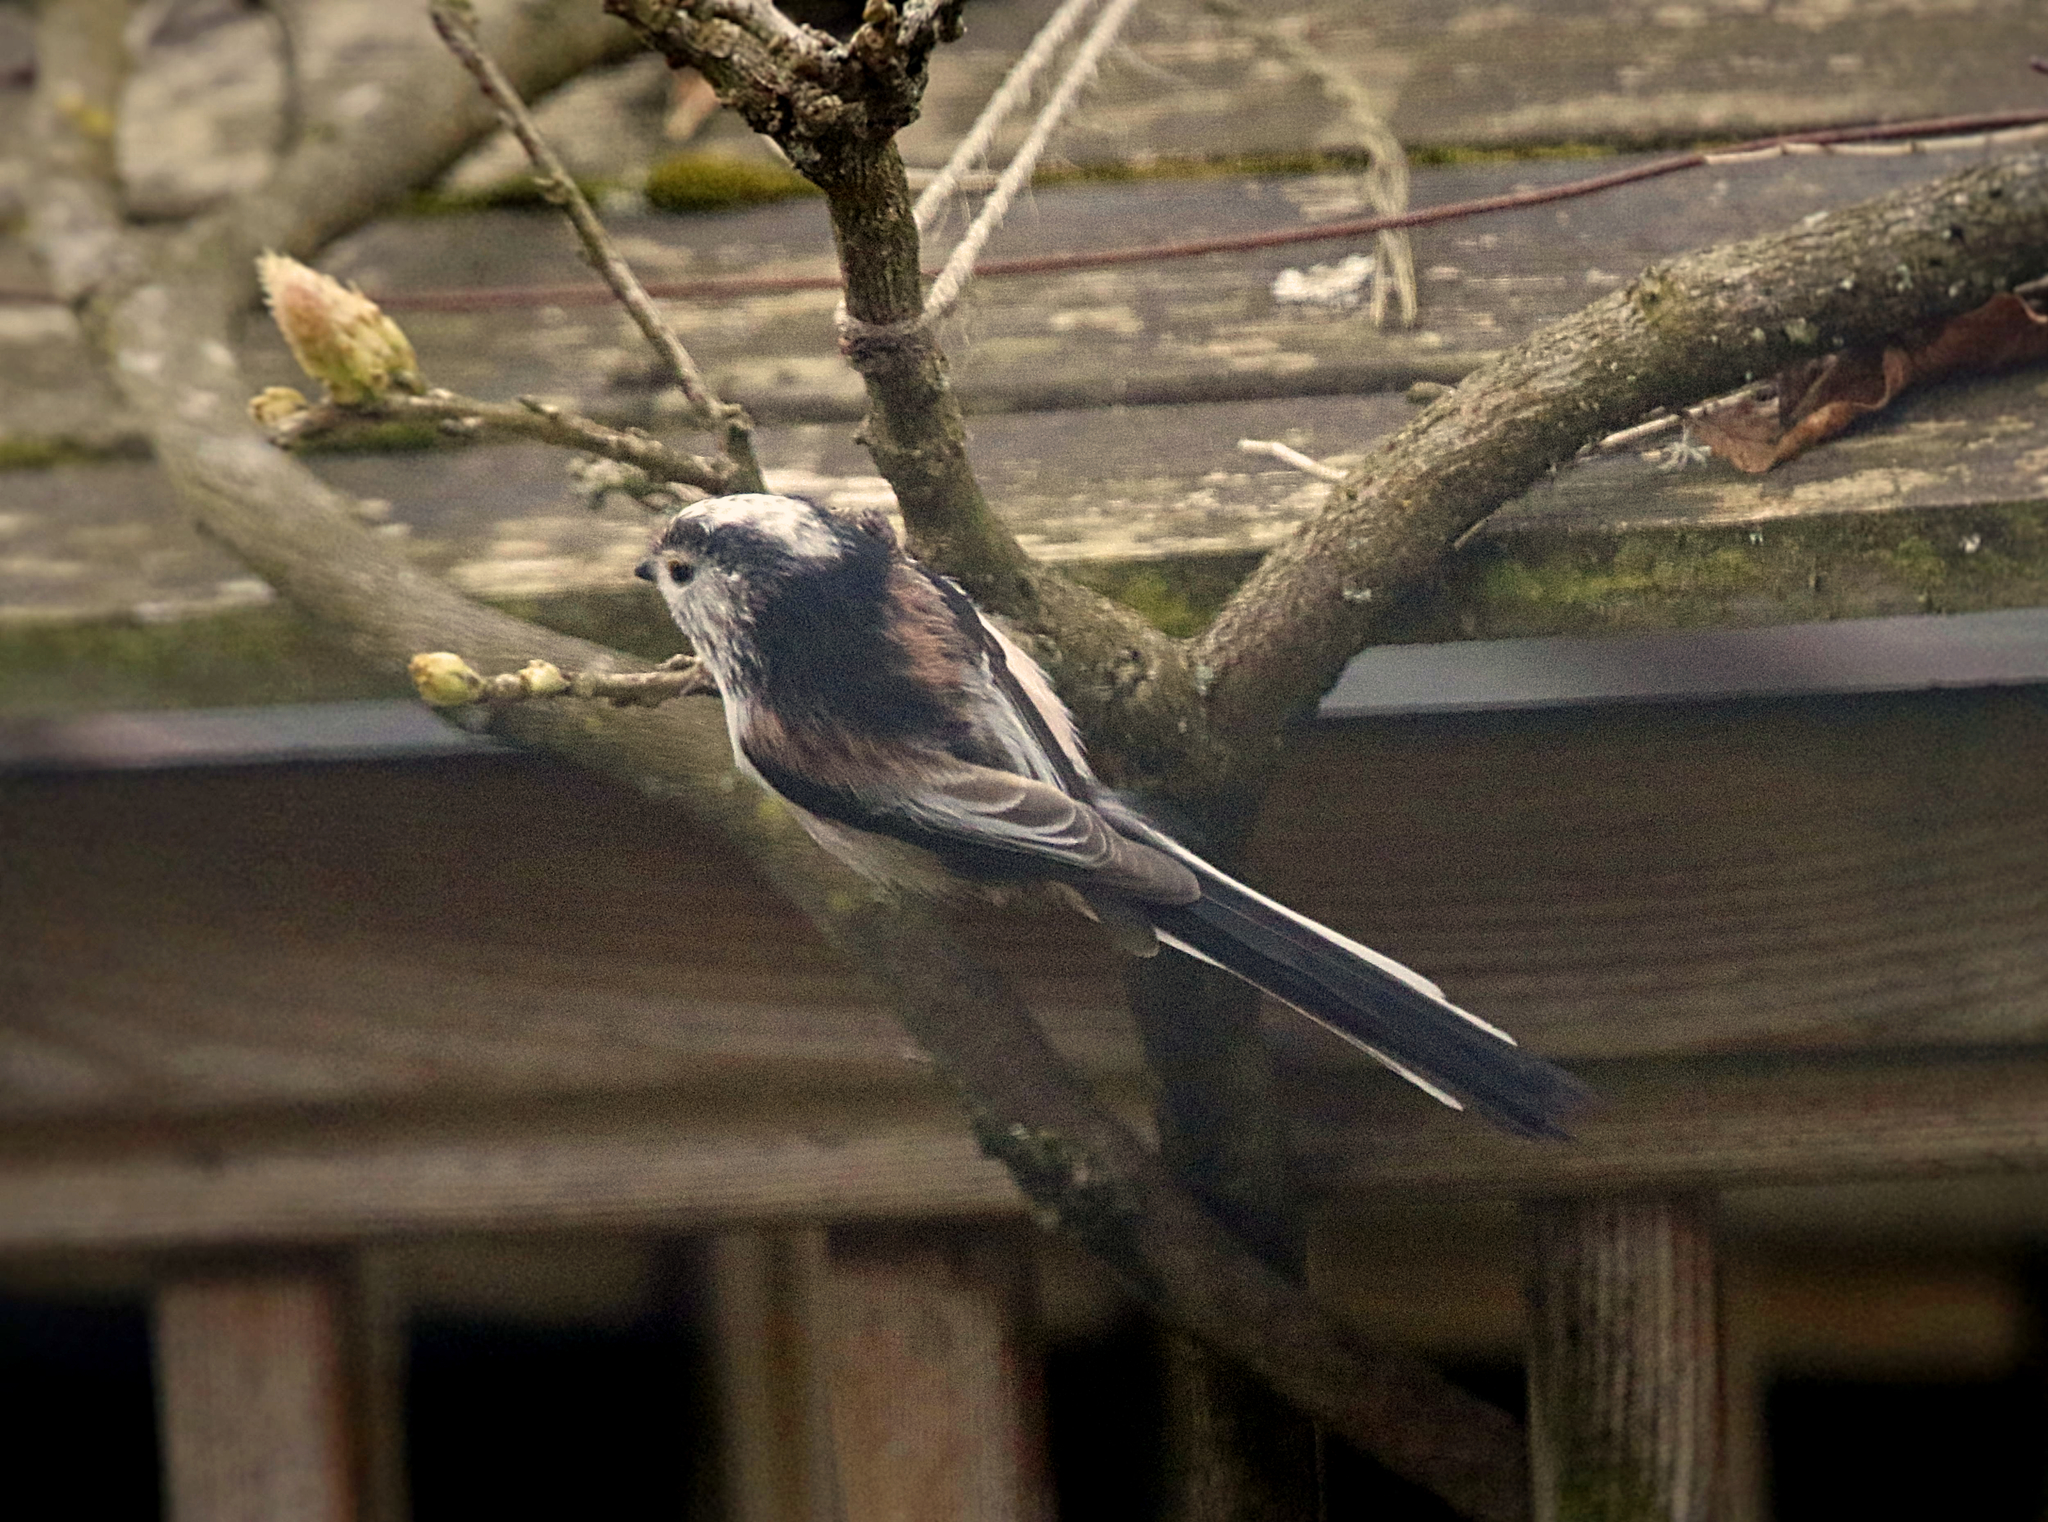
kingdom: Animalia
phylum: Chordata
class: Aves
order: Passeriformes
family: Aegithalidae
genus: Aegithalos
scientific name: Aegithalos caudatus
